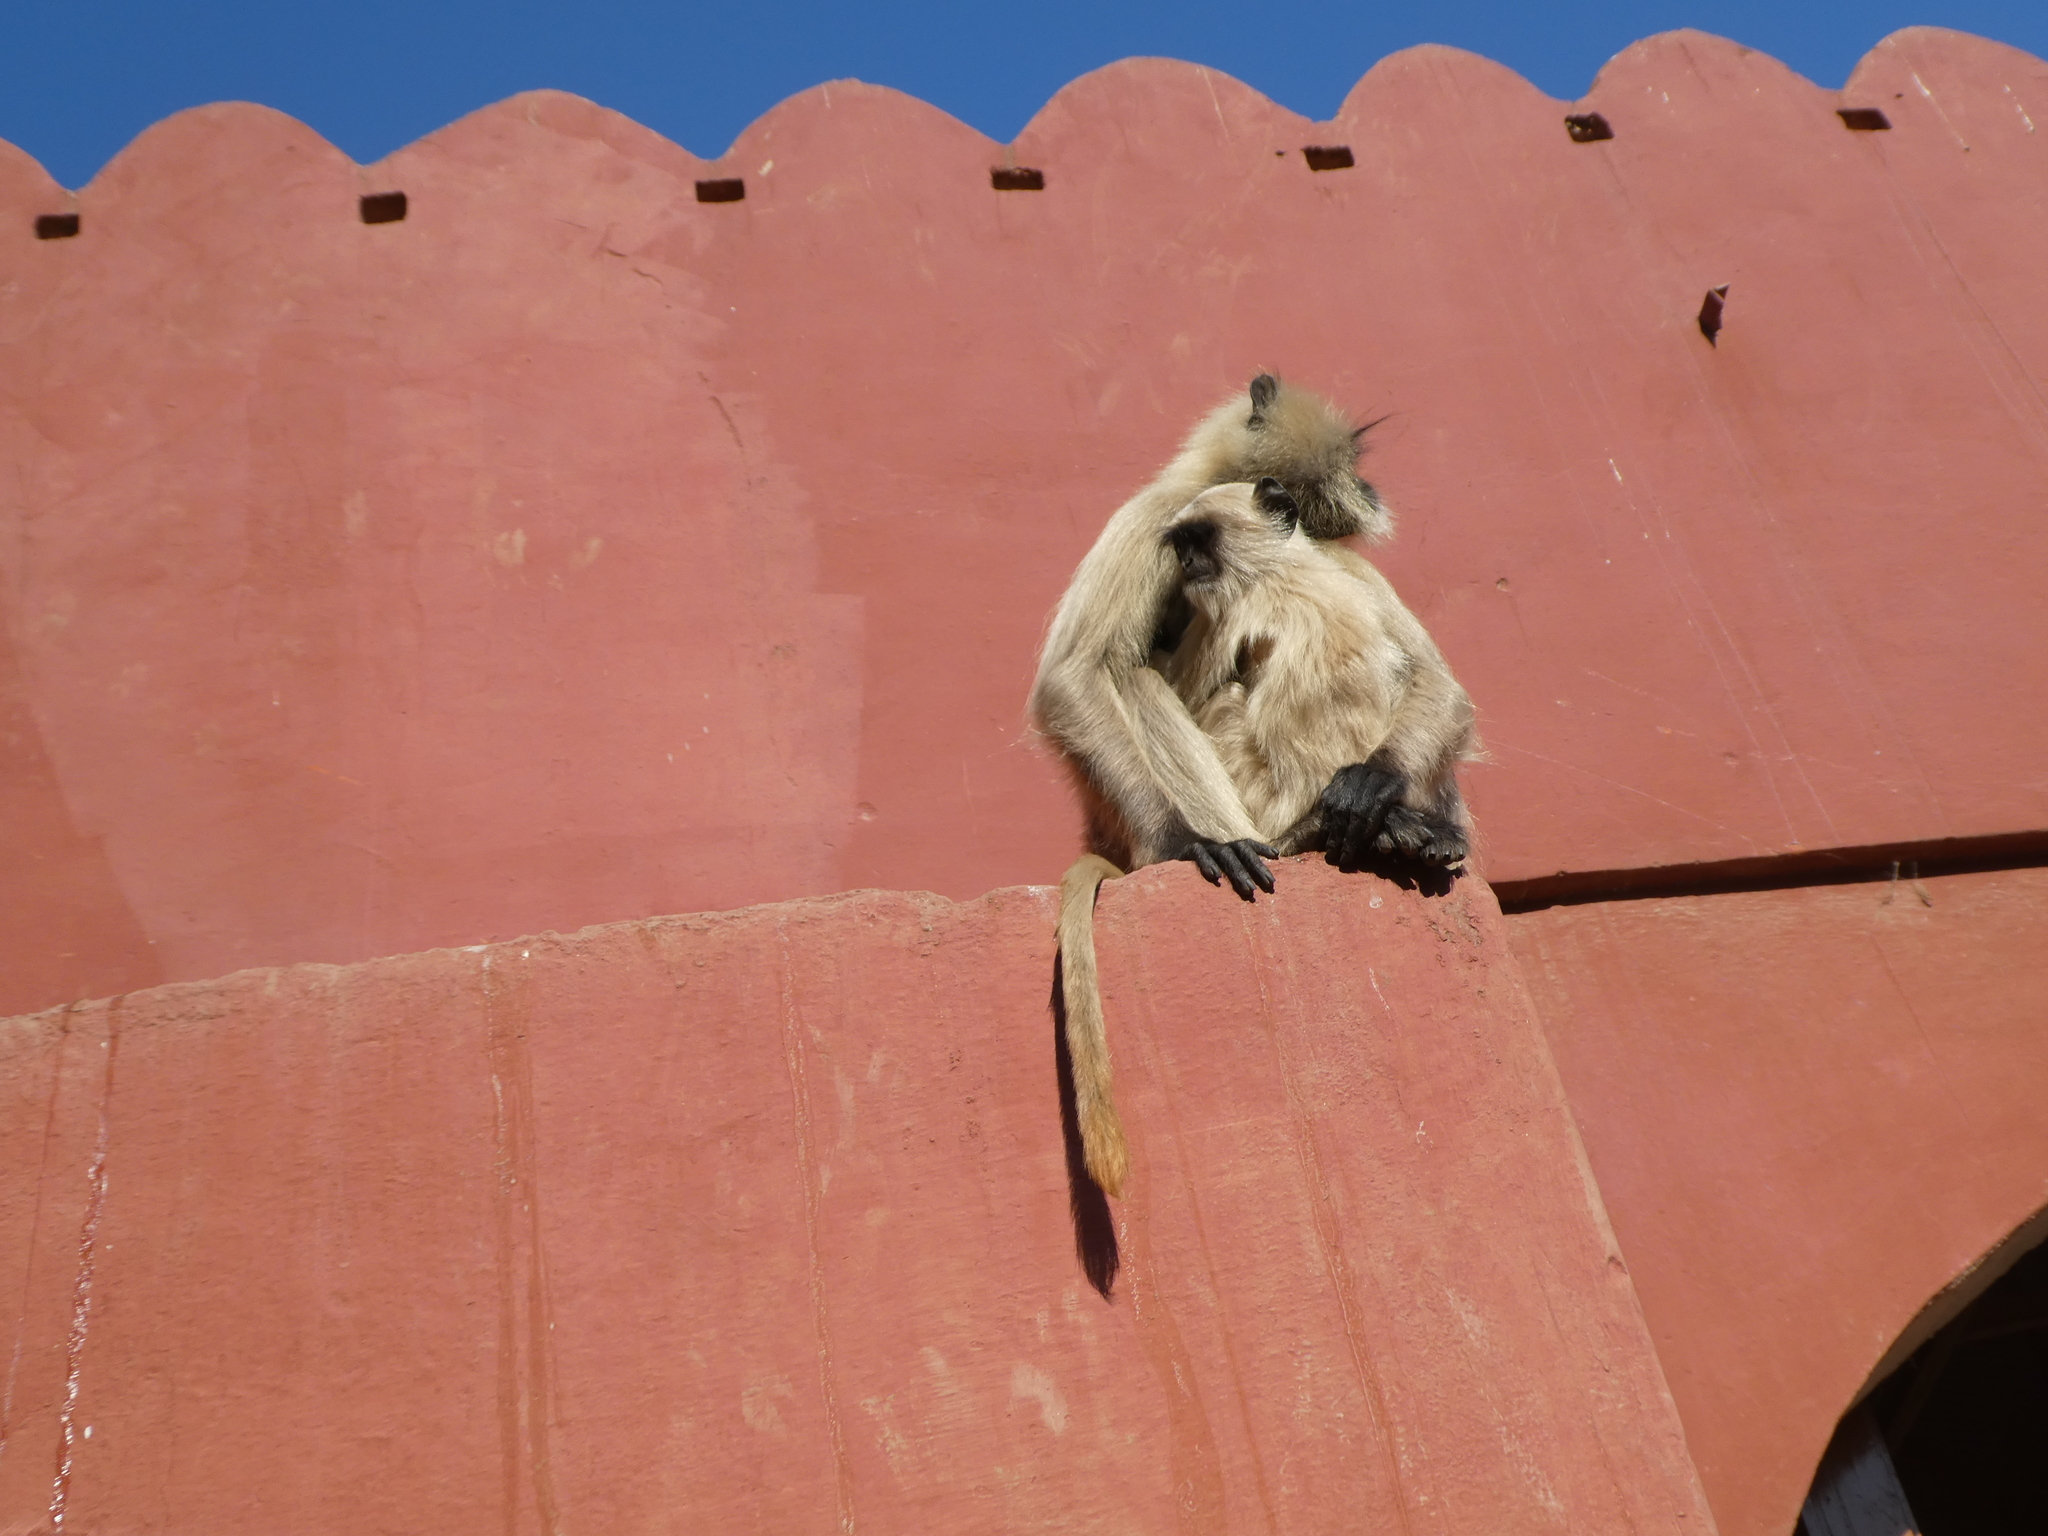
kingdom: Animalia
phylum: Chordata
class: Mammalia
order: Primates
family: Cercopithecidae
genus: Semnopithecus
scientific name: Semnopithecus entellus
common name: Northern plains gray langur
